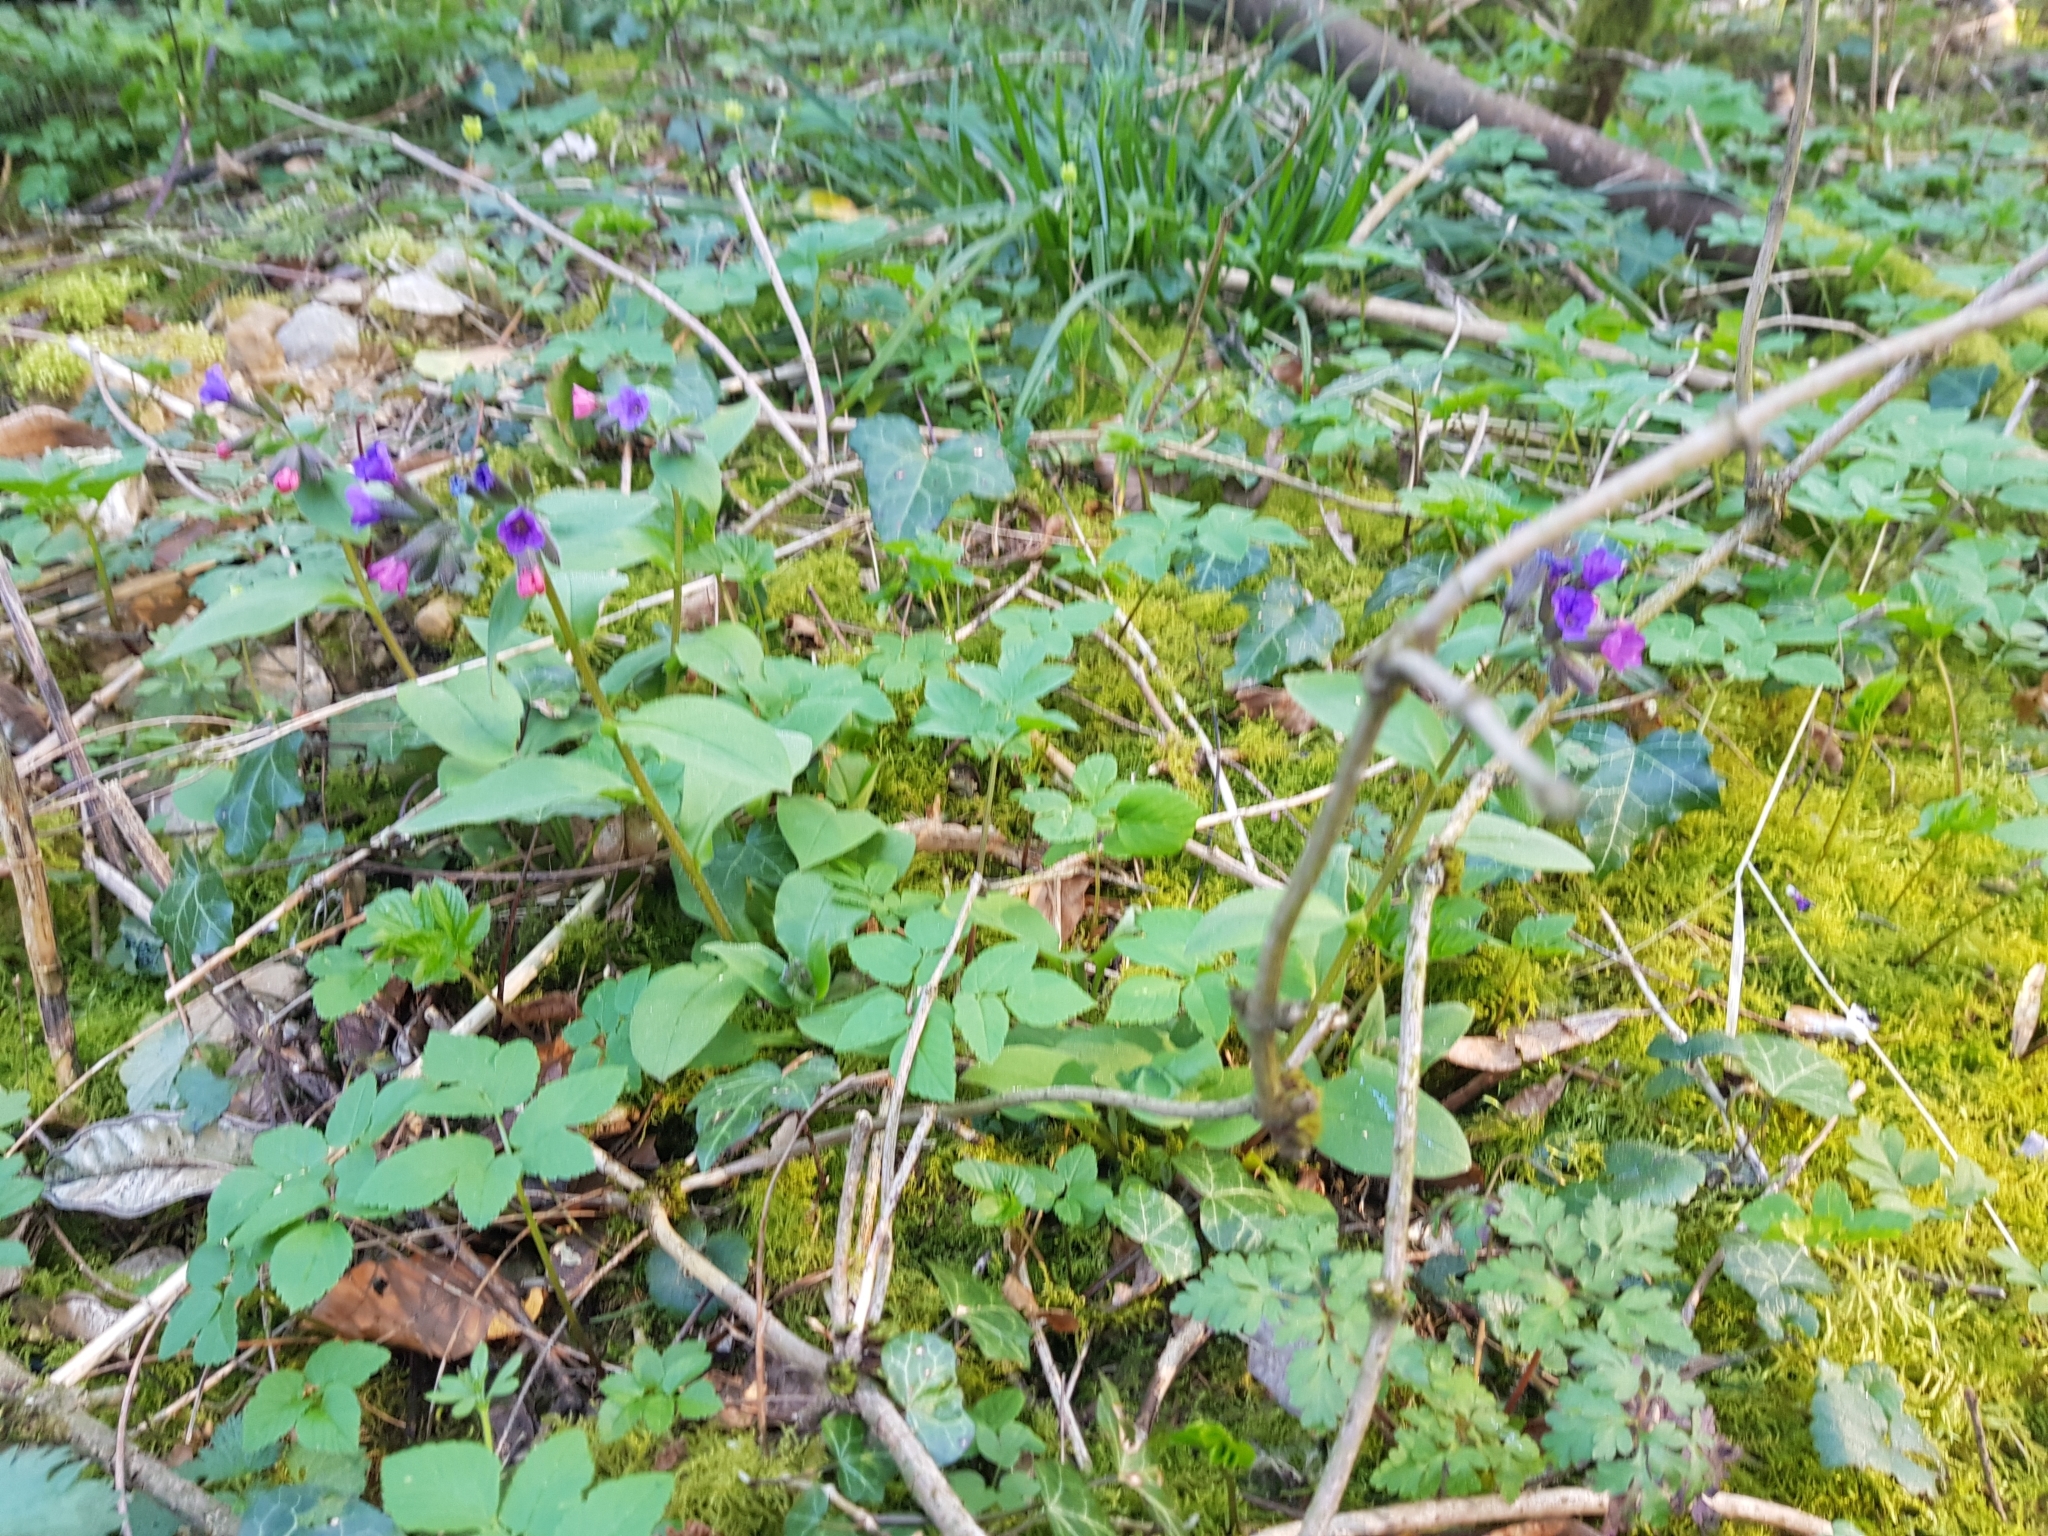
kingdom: Plantae
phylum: Tracheophyta
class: Magnoliopsida
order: Boraginales
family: Boraginaceae
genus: Pulmonaria
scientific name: Pulmonaria obscura
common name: Suffolk lungwort
